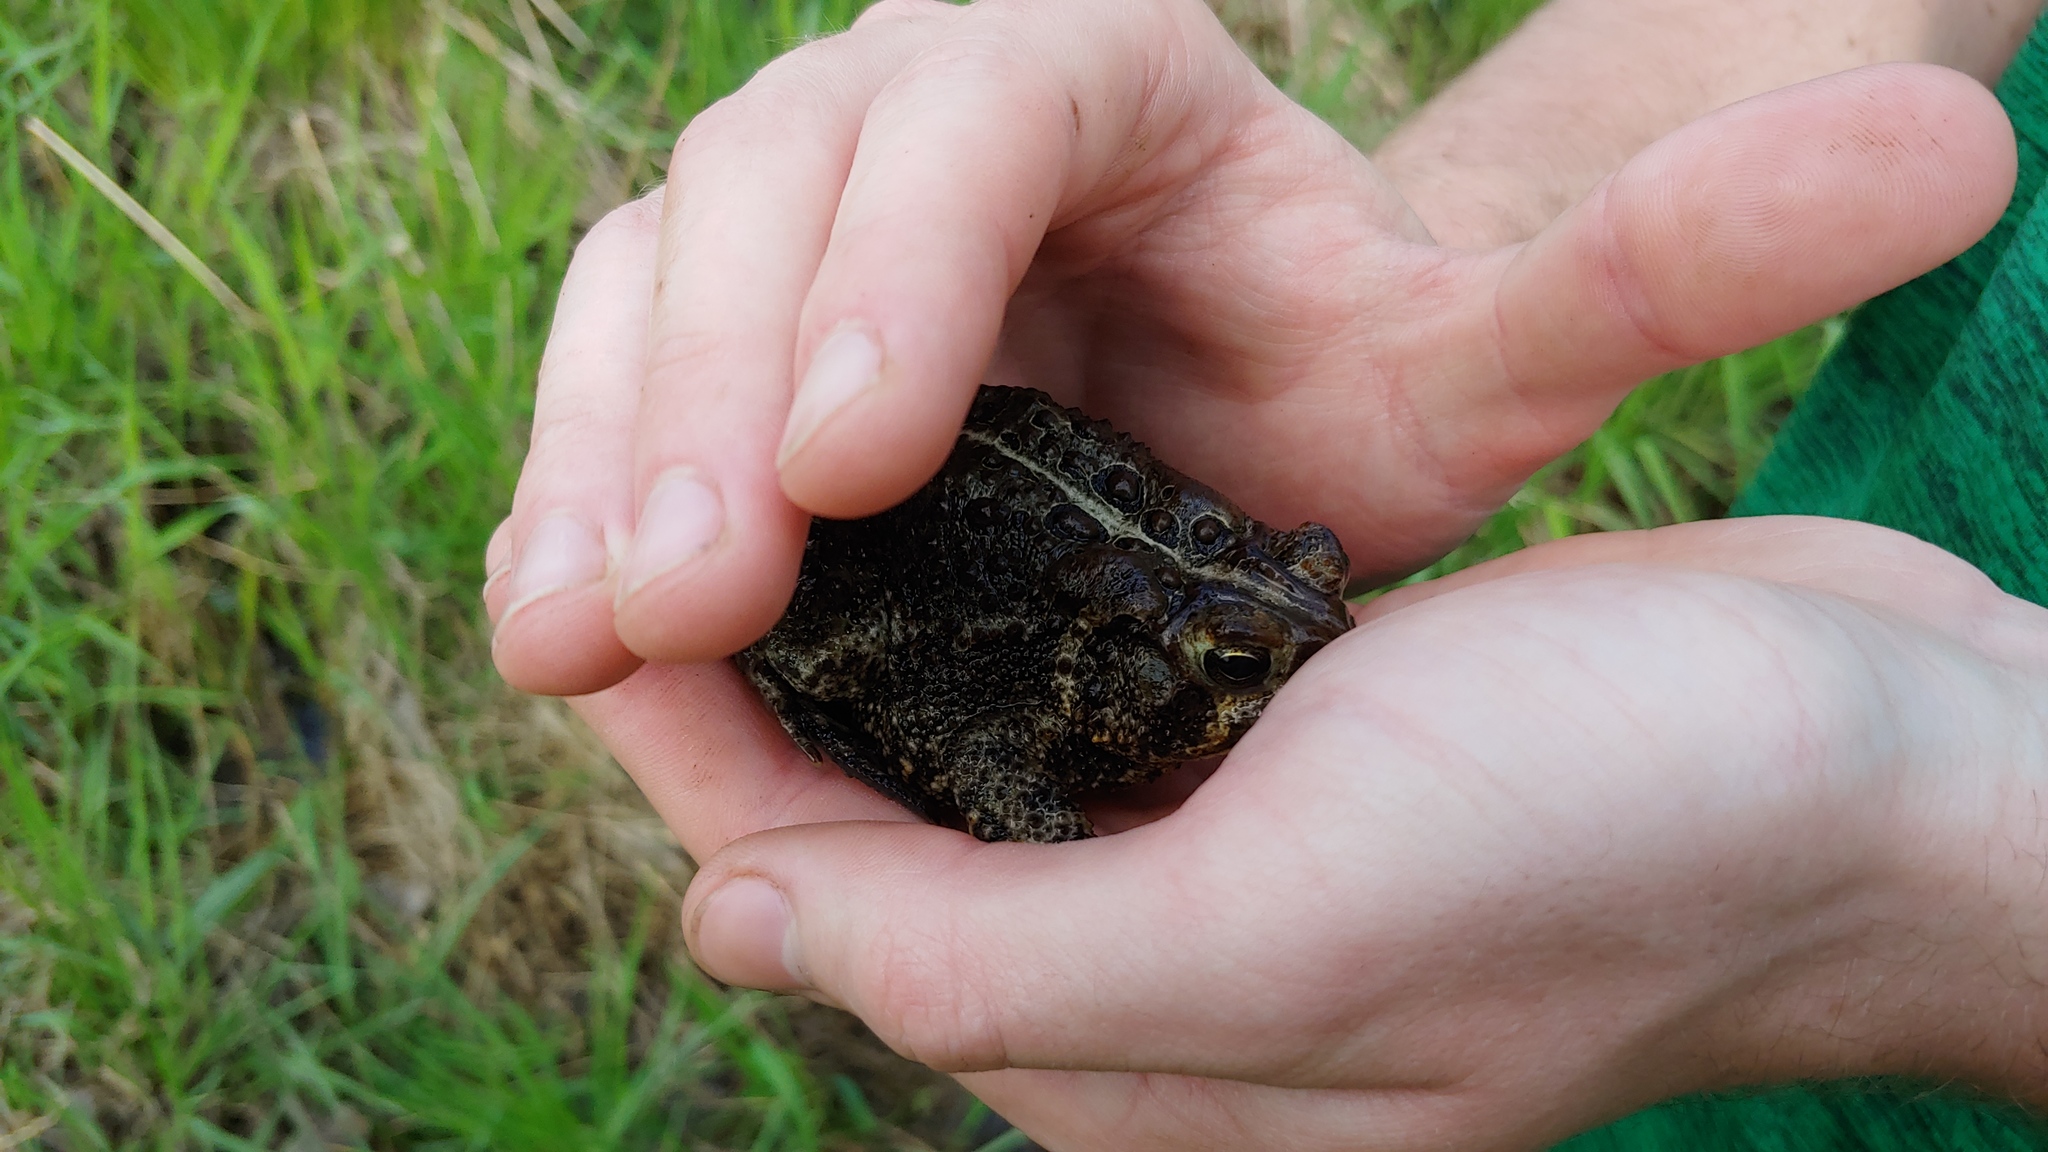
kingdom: Animalia
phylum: Chordata
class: Amphibia
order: Anura
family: Bufonidae
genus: Anaxyrus
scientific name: Anaxyrus americanus
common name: American toad
